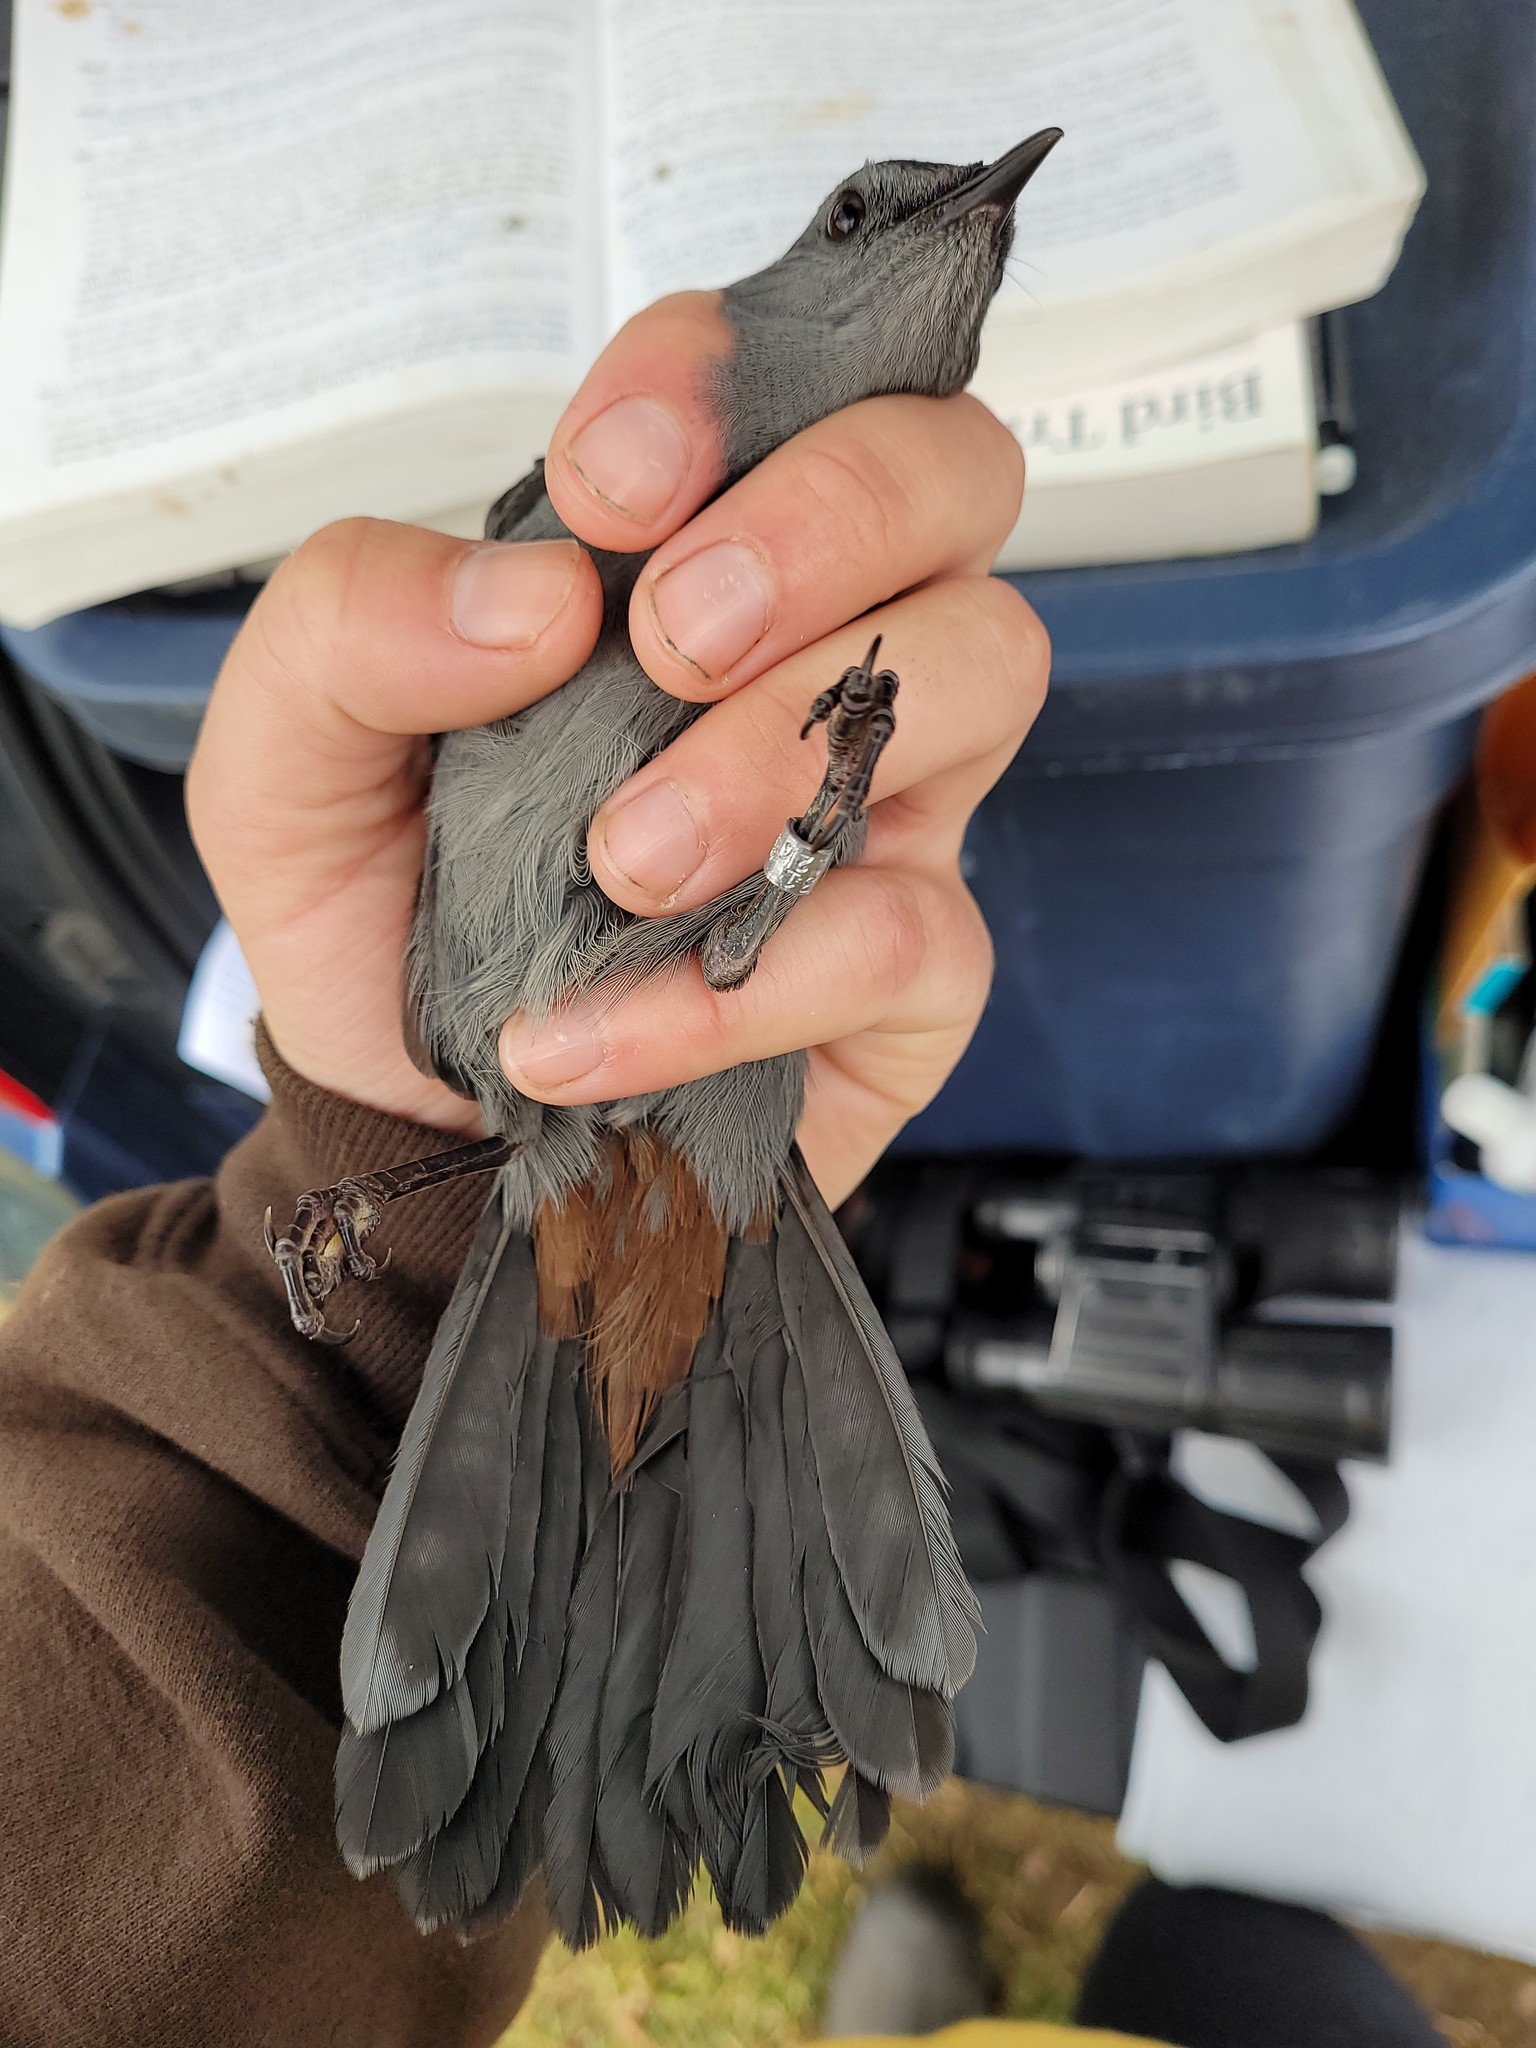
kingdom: Animalia
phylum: Chordata
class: Aves
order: Passeriformes
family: Mimidae
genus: Dumetella
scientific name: Dumetella carolinensis
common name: Gray catbird
